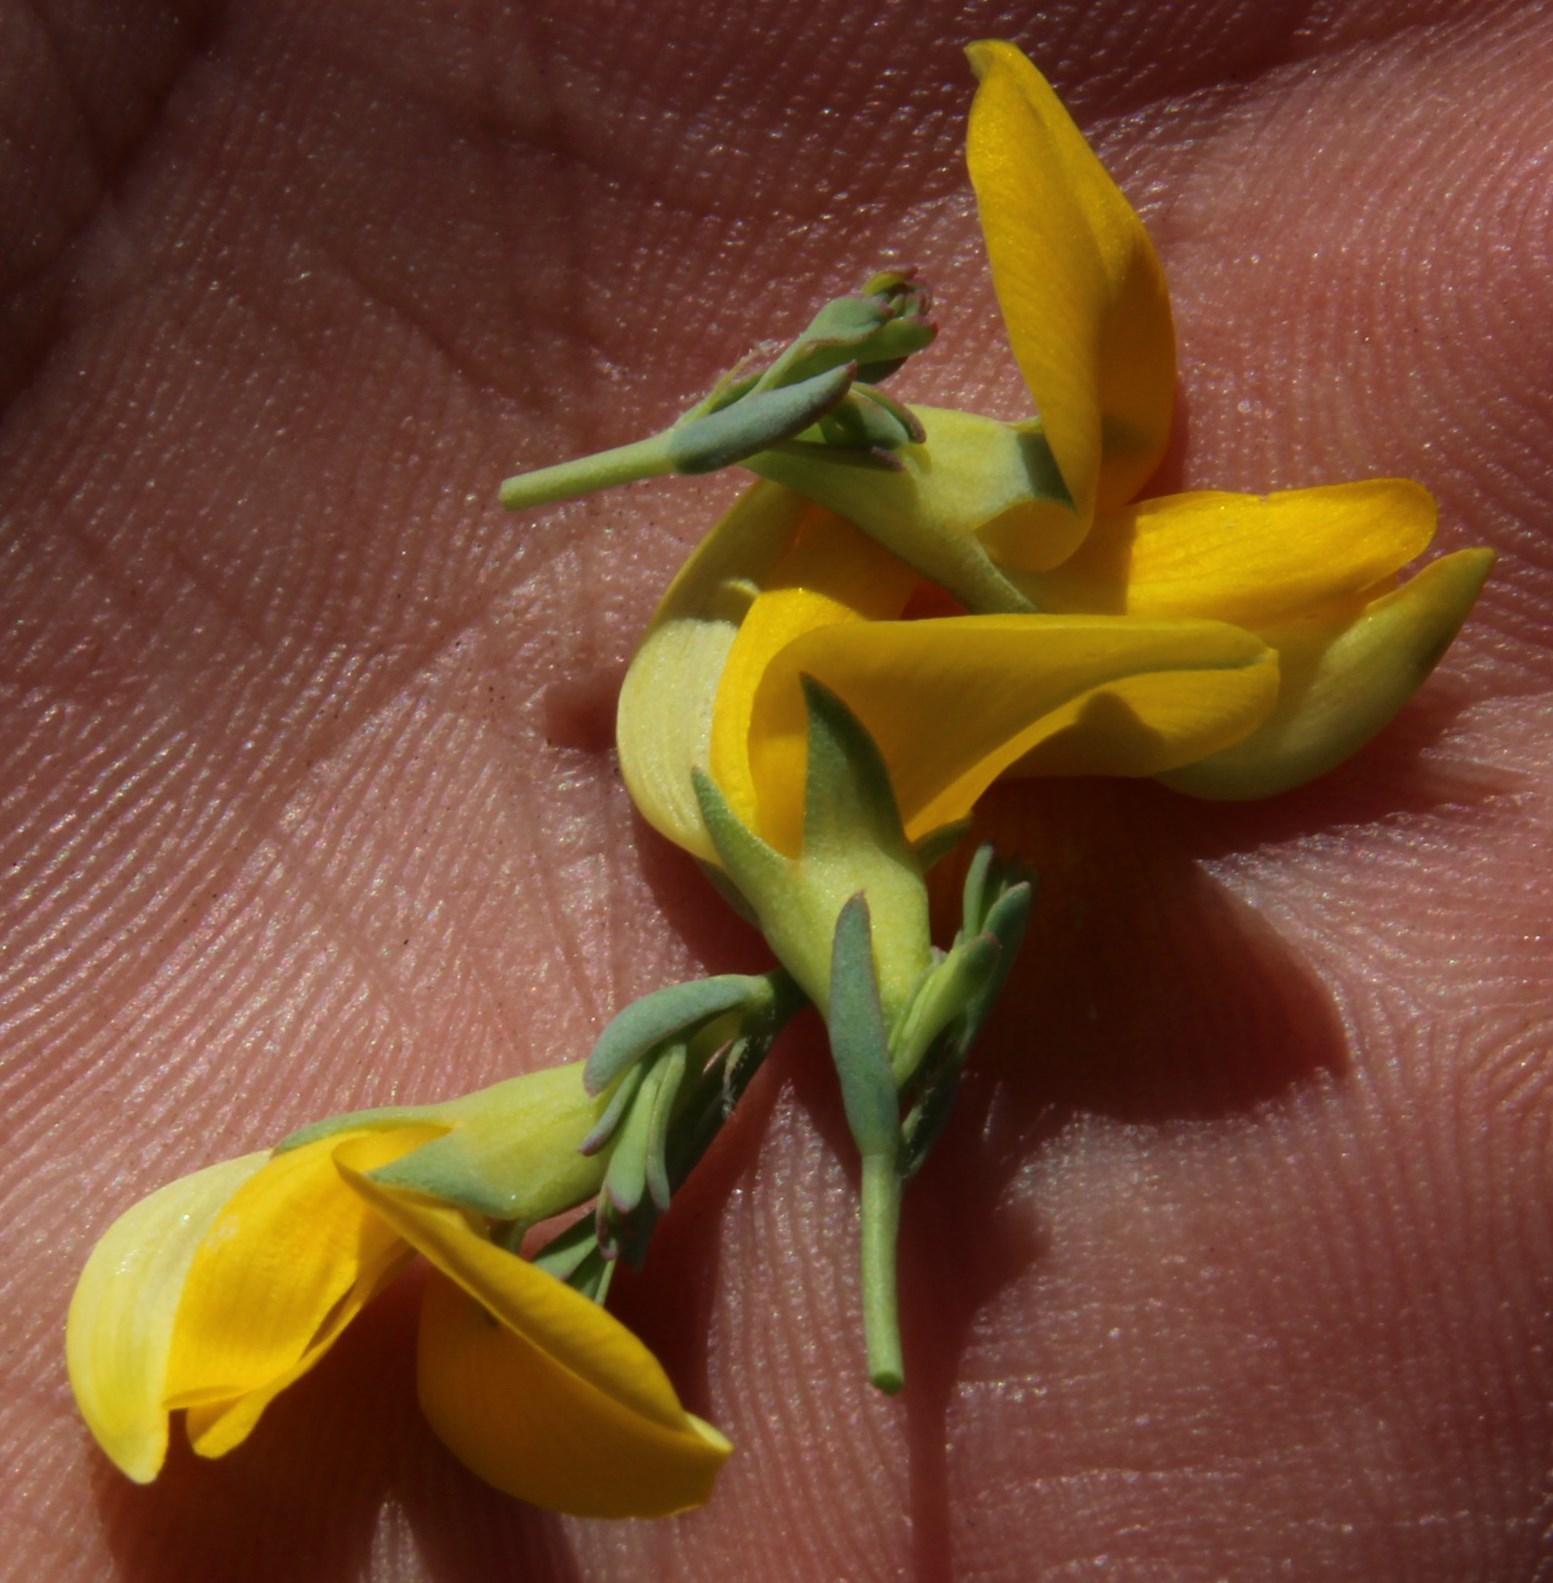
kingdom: Plantae
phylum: Tracheophyta
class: Magnoliopsida
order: Fabales
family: Fabaceae
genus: Rafnia
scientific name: Rafnia spicata
